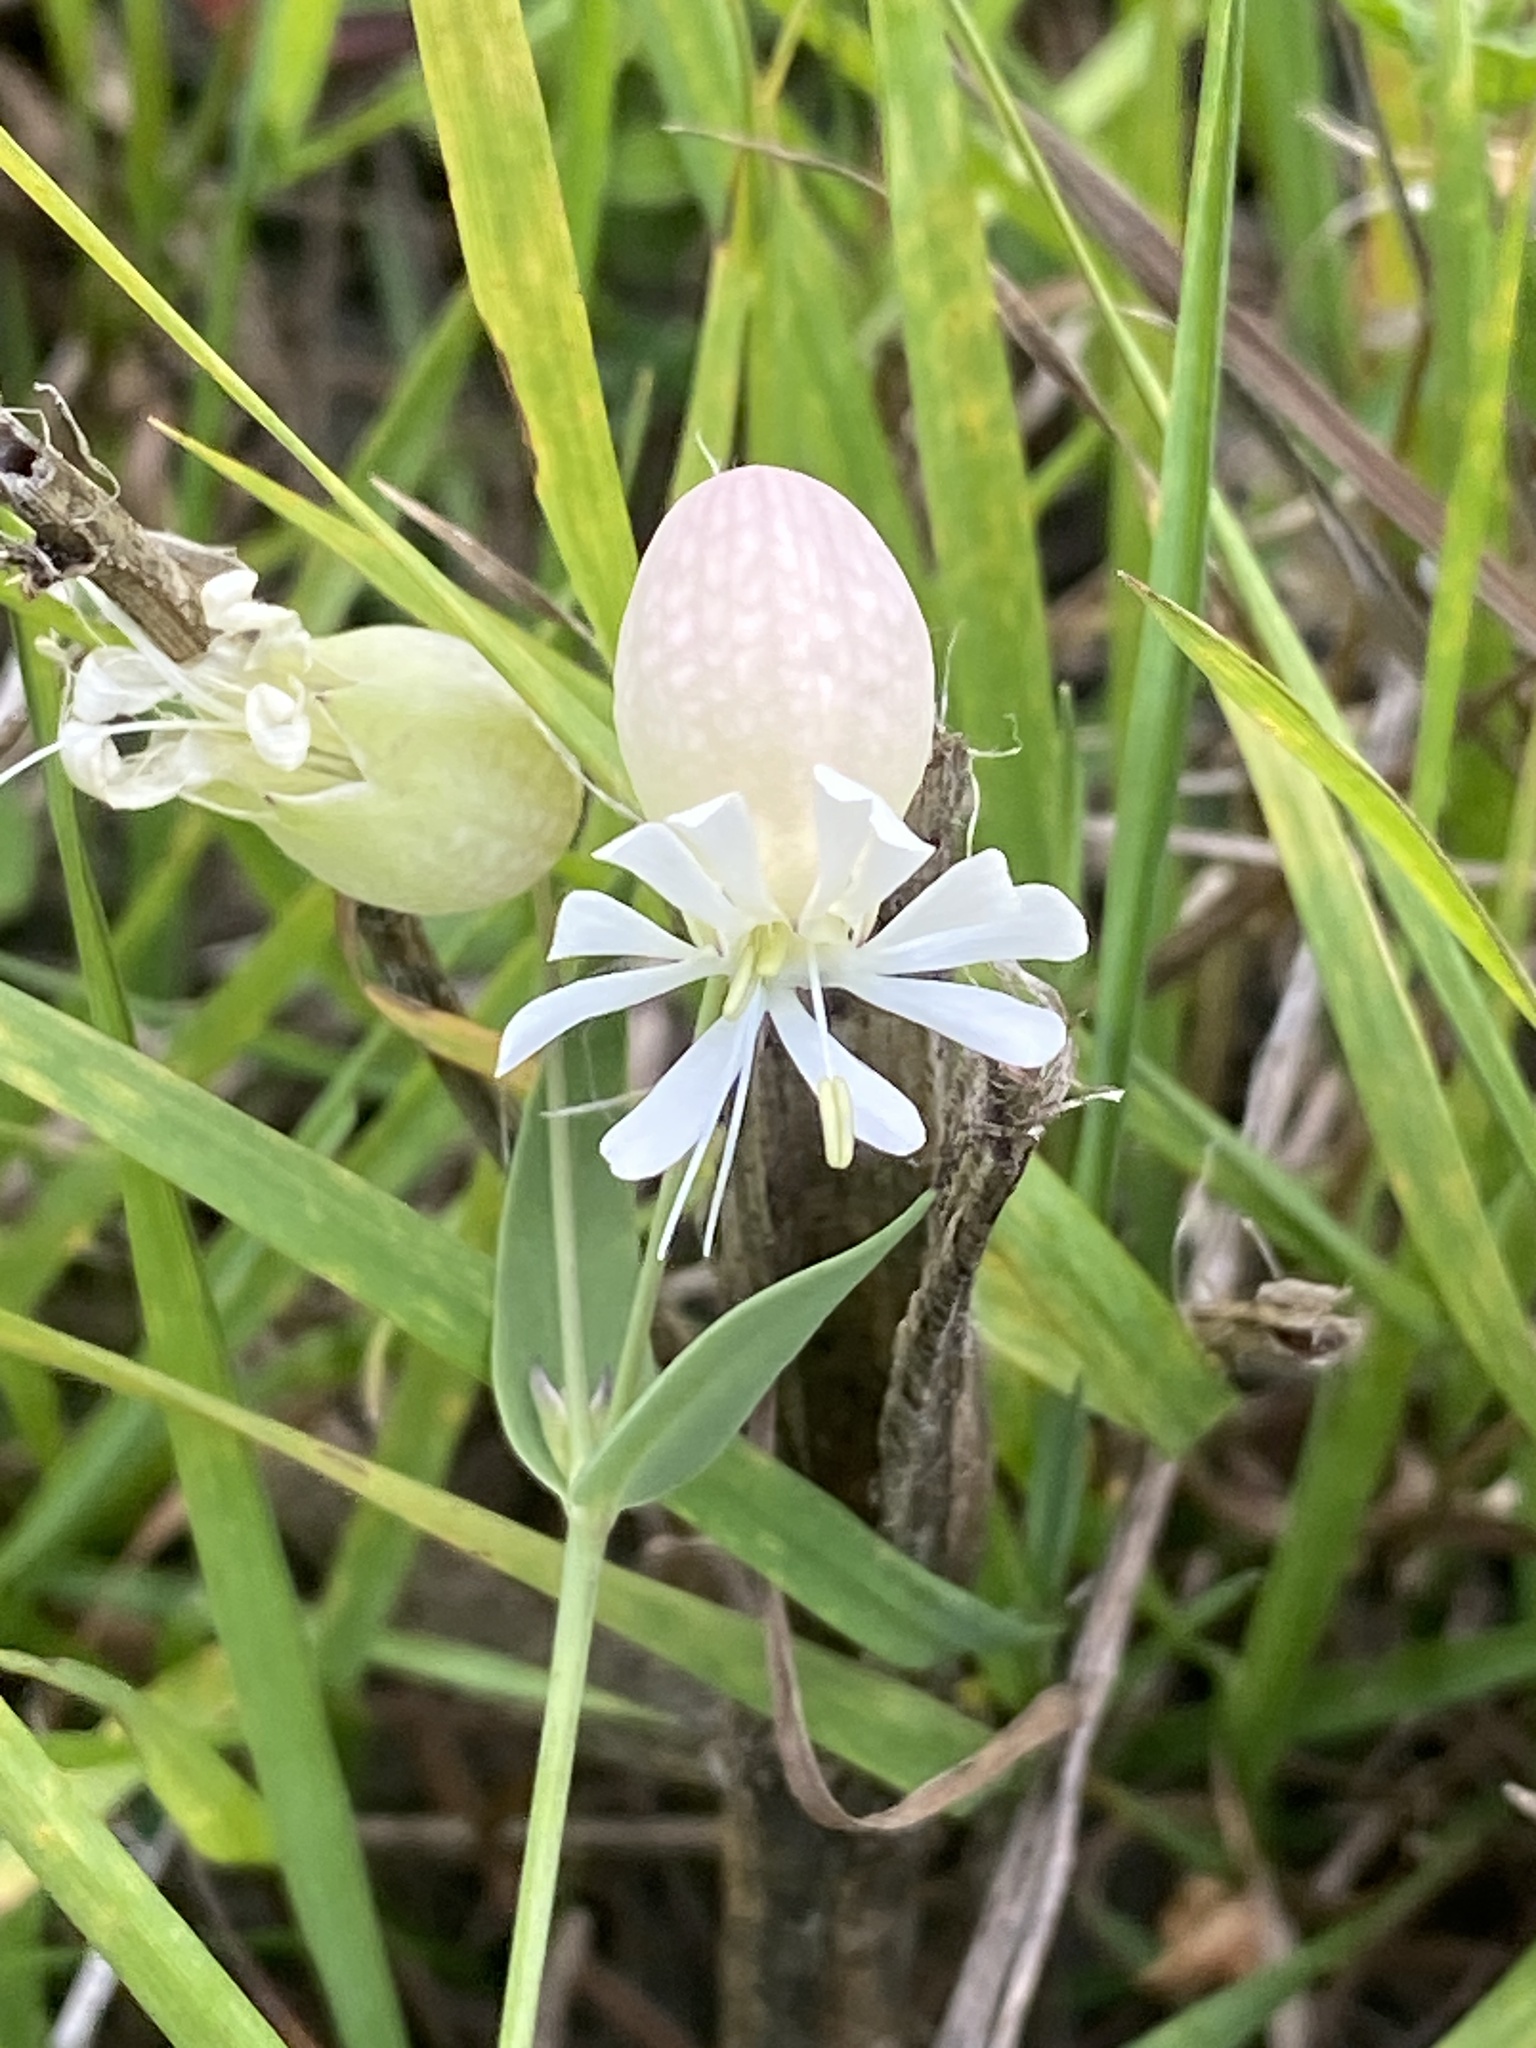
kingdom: Plantae
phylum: Tracheophyta
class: Magnoliopsida
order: Caryophyllales
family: Caryophyllaceae
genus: Silene
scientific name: Silene vulgaris
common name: Bladder campion
